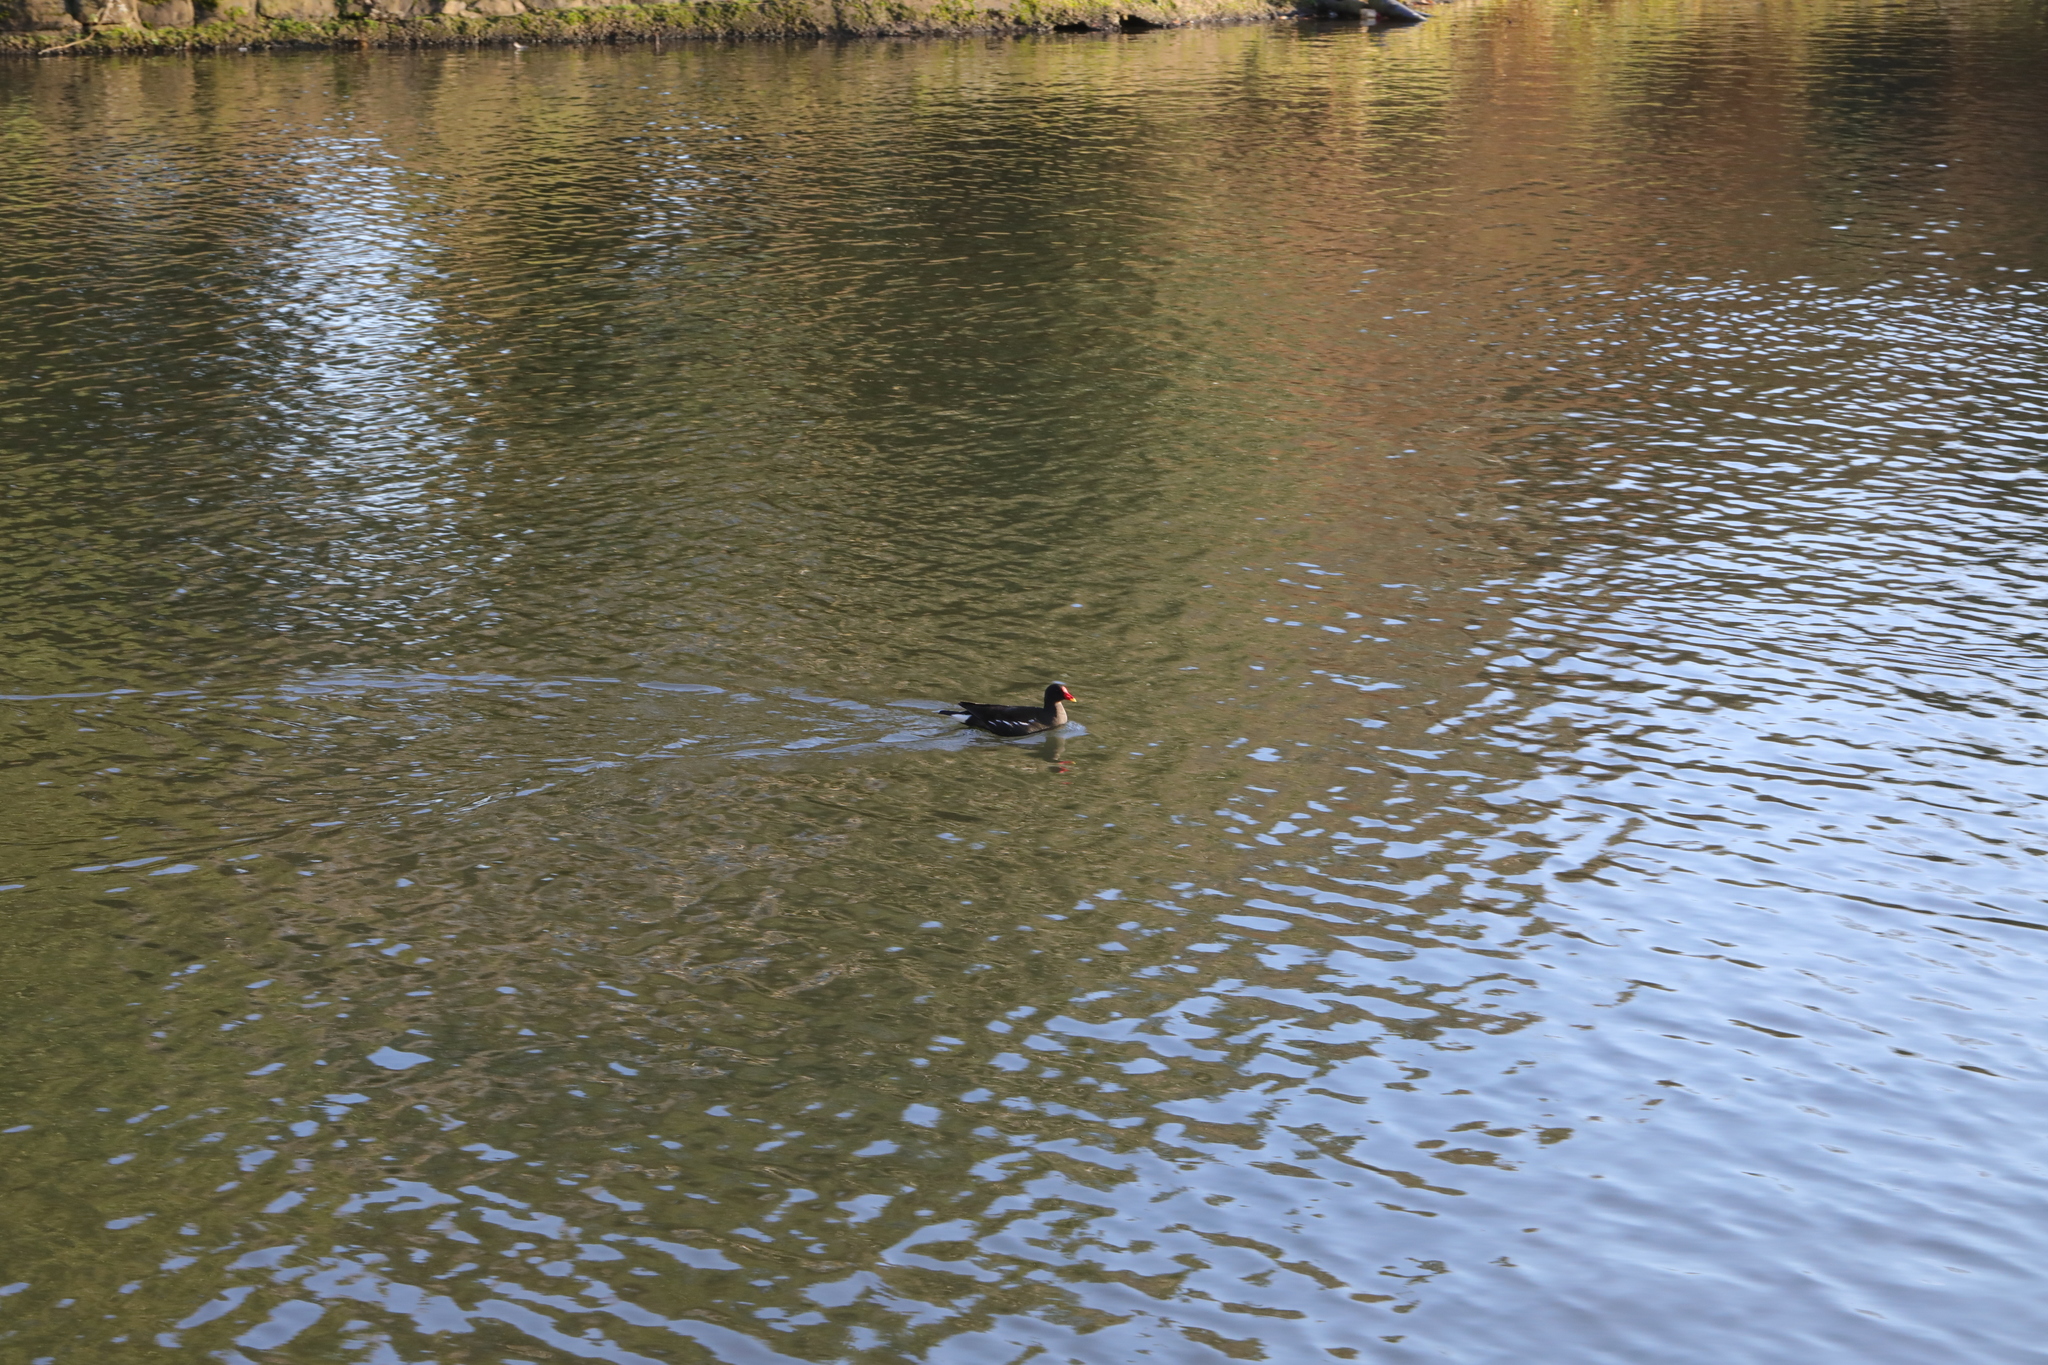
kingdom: Animalia
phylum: Chordata
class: Aves
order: Gruiformes
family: Rallidae
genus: Gallinula
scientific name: Gallinula chloropus
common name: Common moorhen
